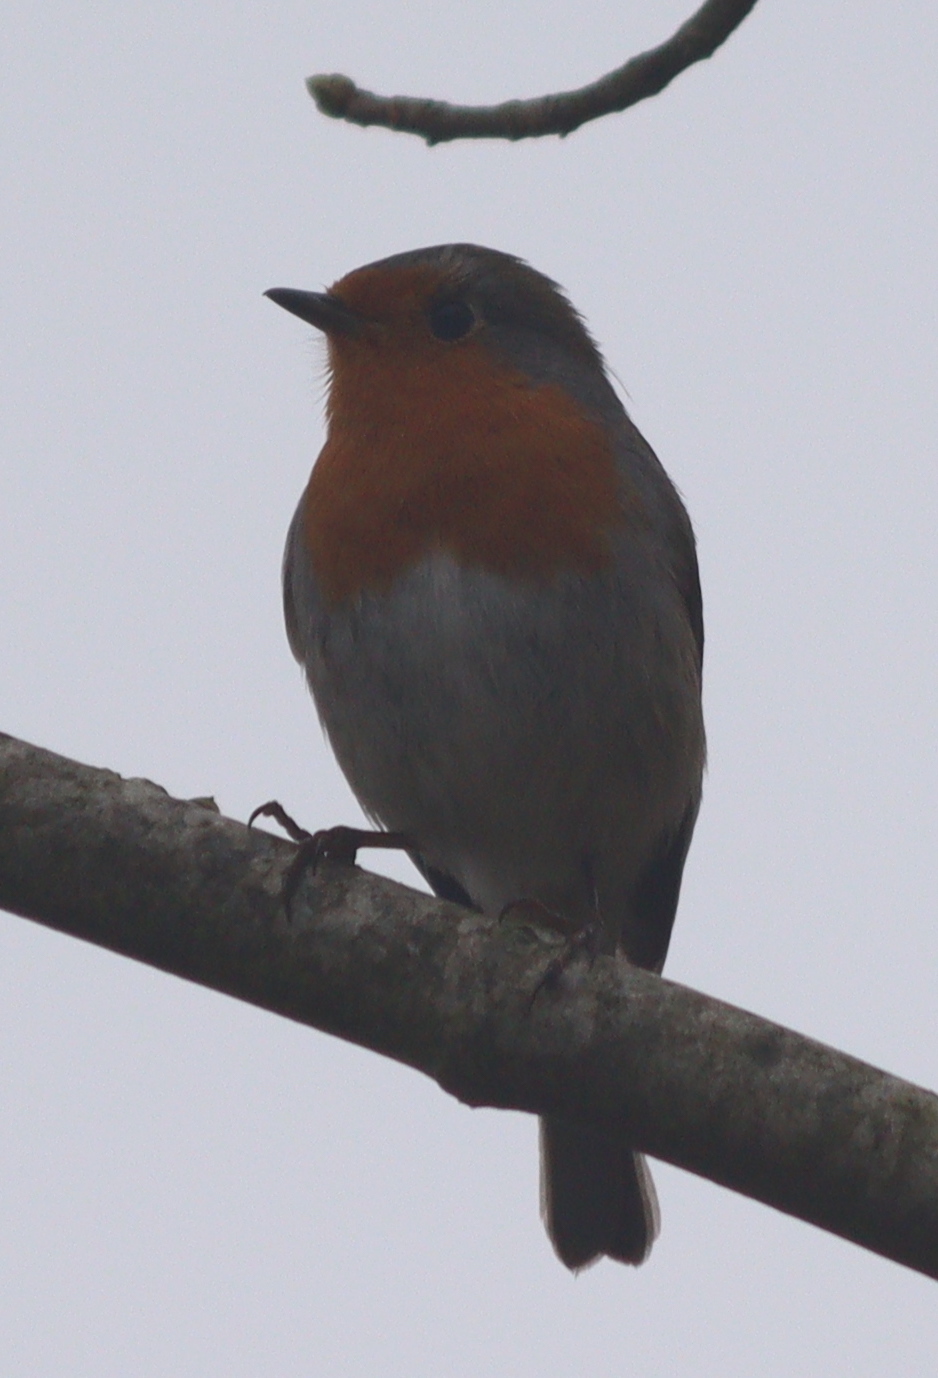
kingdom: Animalia
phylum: Chordata
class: Aves
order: Passeriformes
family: Muscicapidae
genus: Erithacus
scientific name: Erithacus rubecula
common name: European robin
